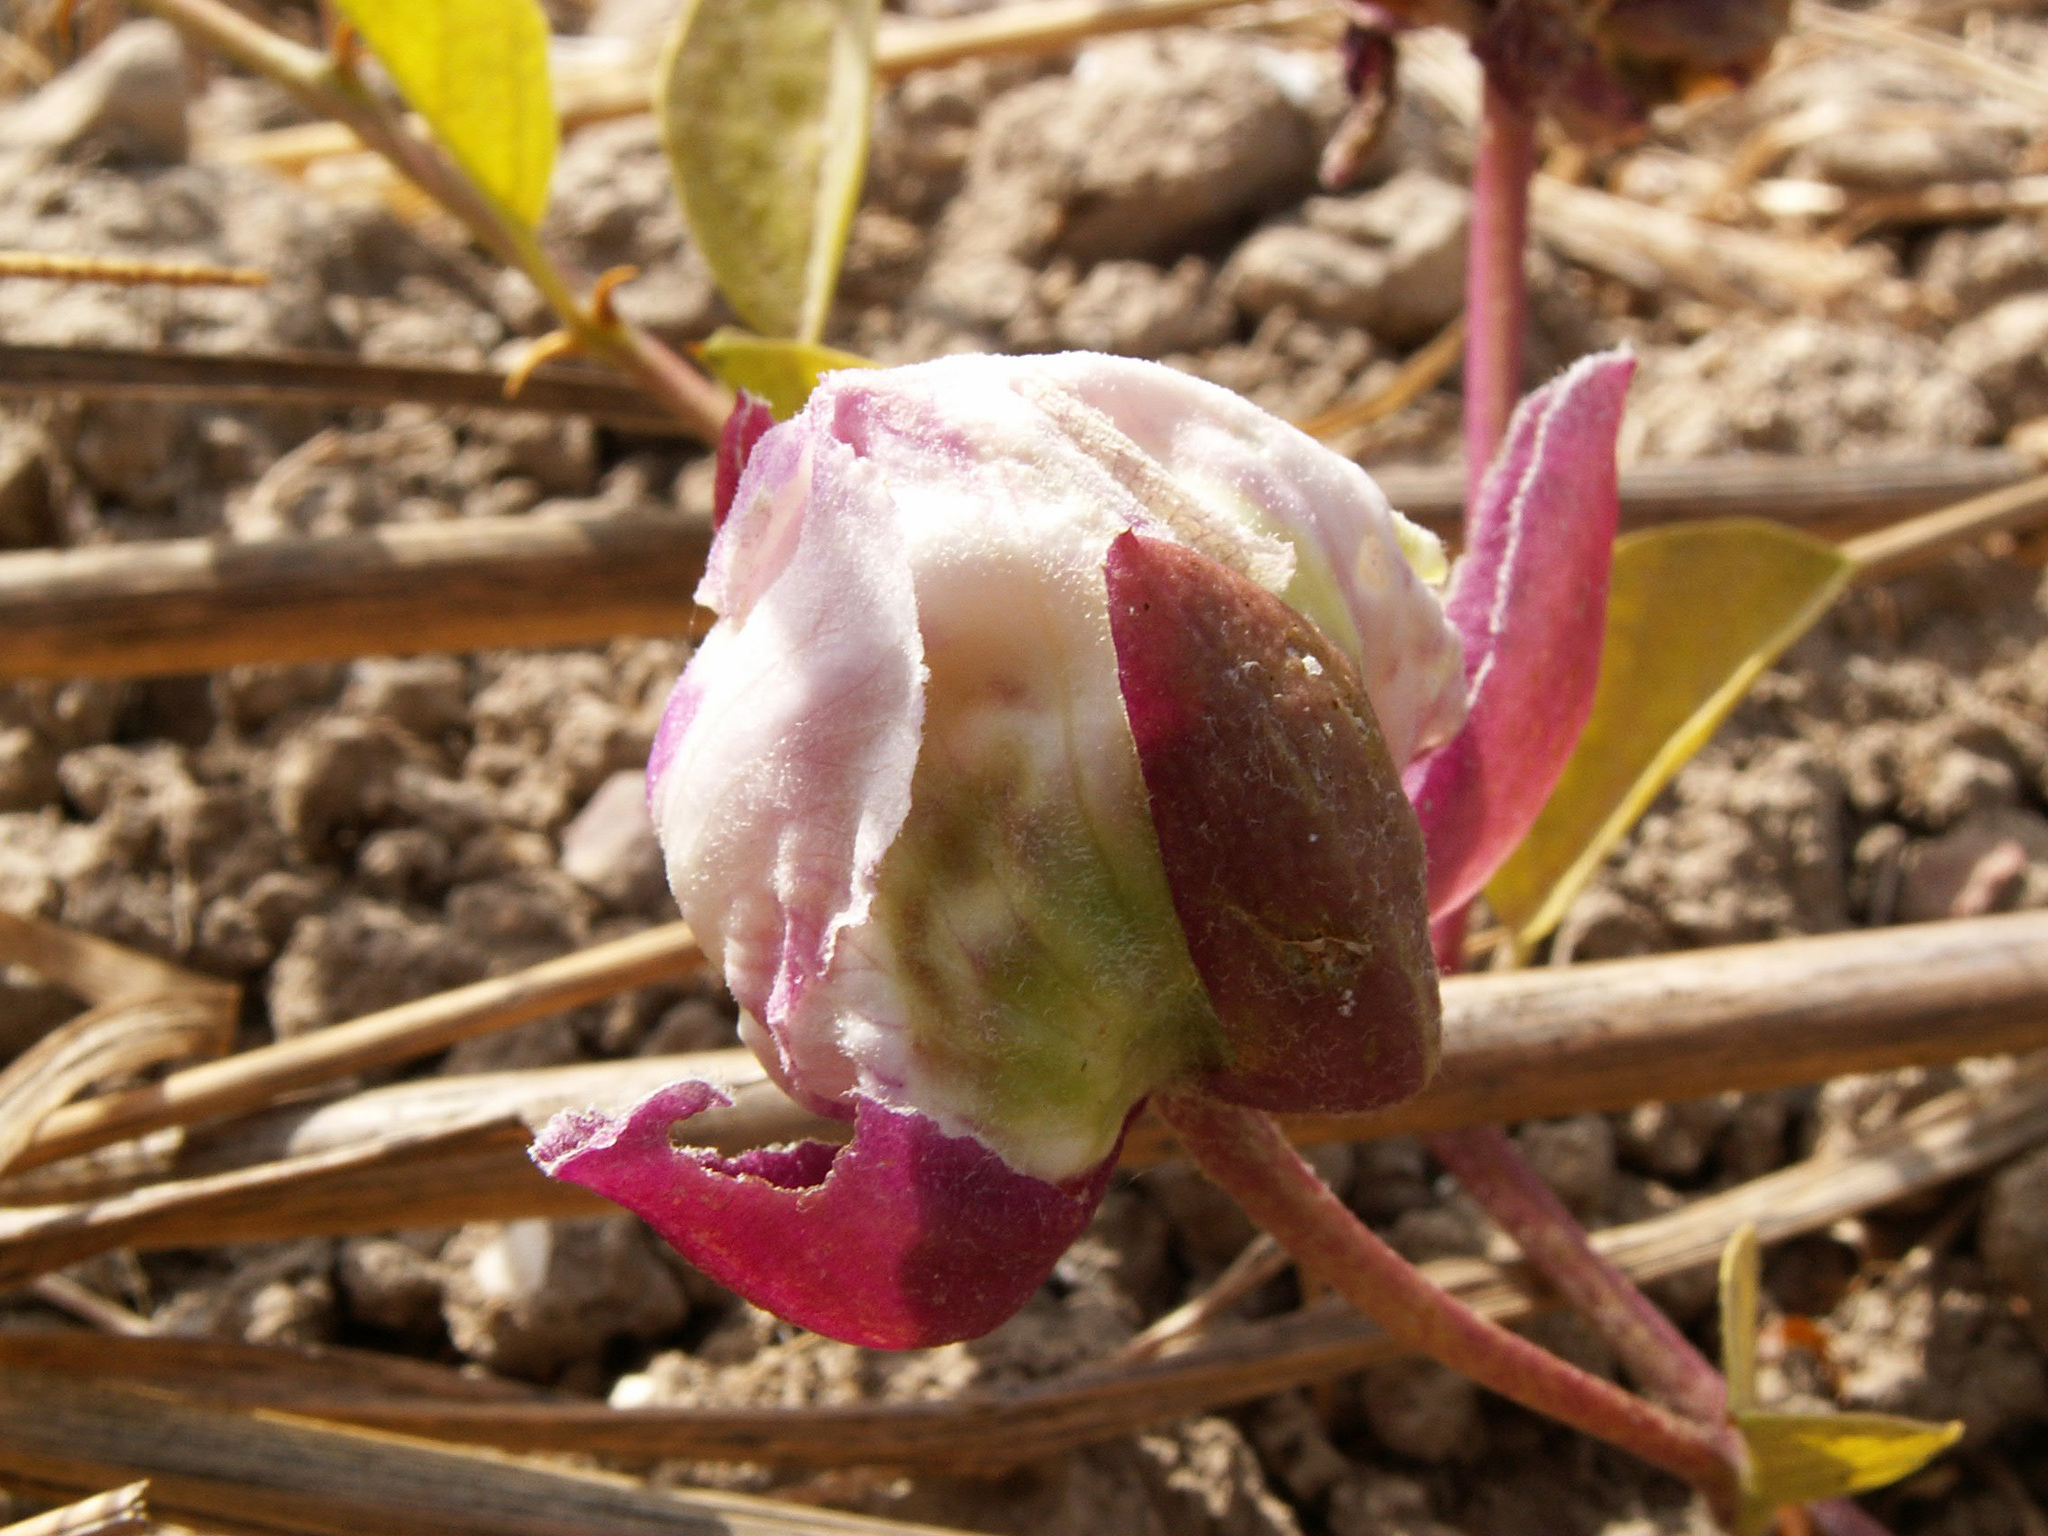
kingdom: Plantae
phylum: Tracheophyta
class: Magnoliopsida
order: Brassicales
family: Capparaceae
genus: Capparis
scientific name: Capparis spinosa
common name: Caper
